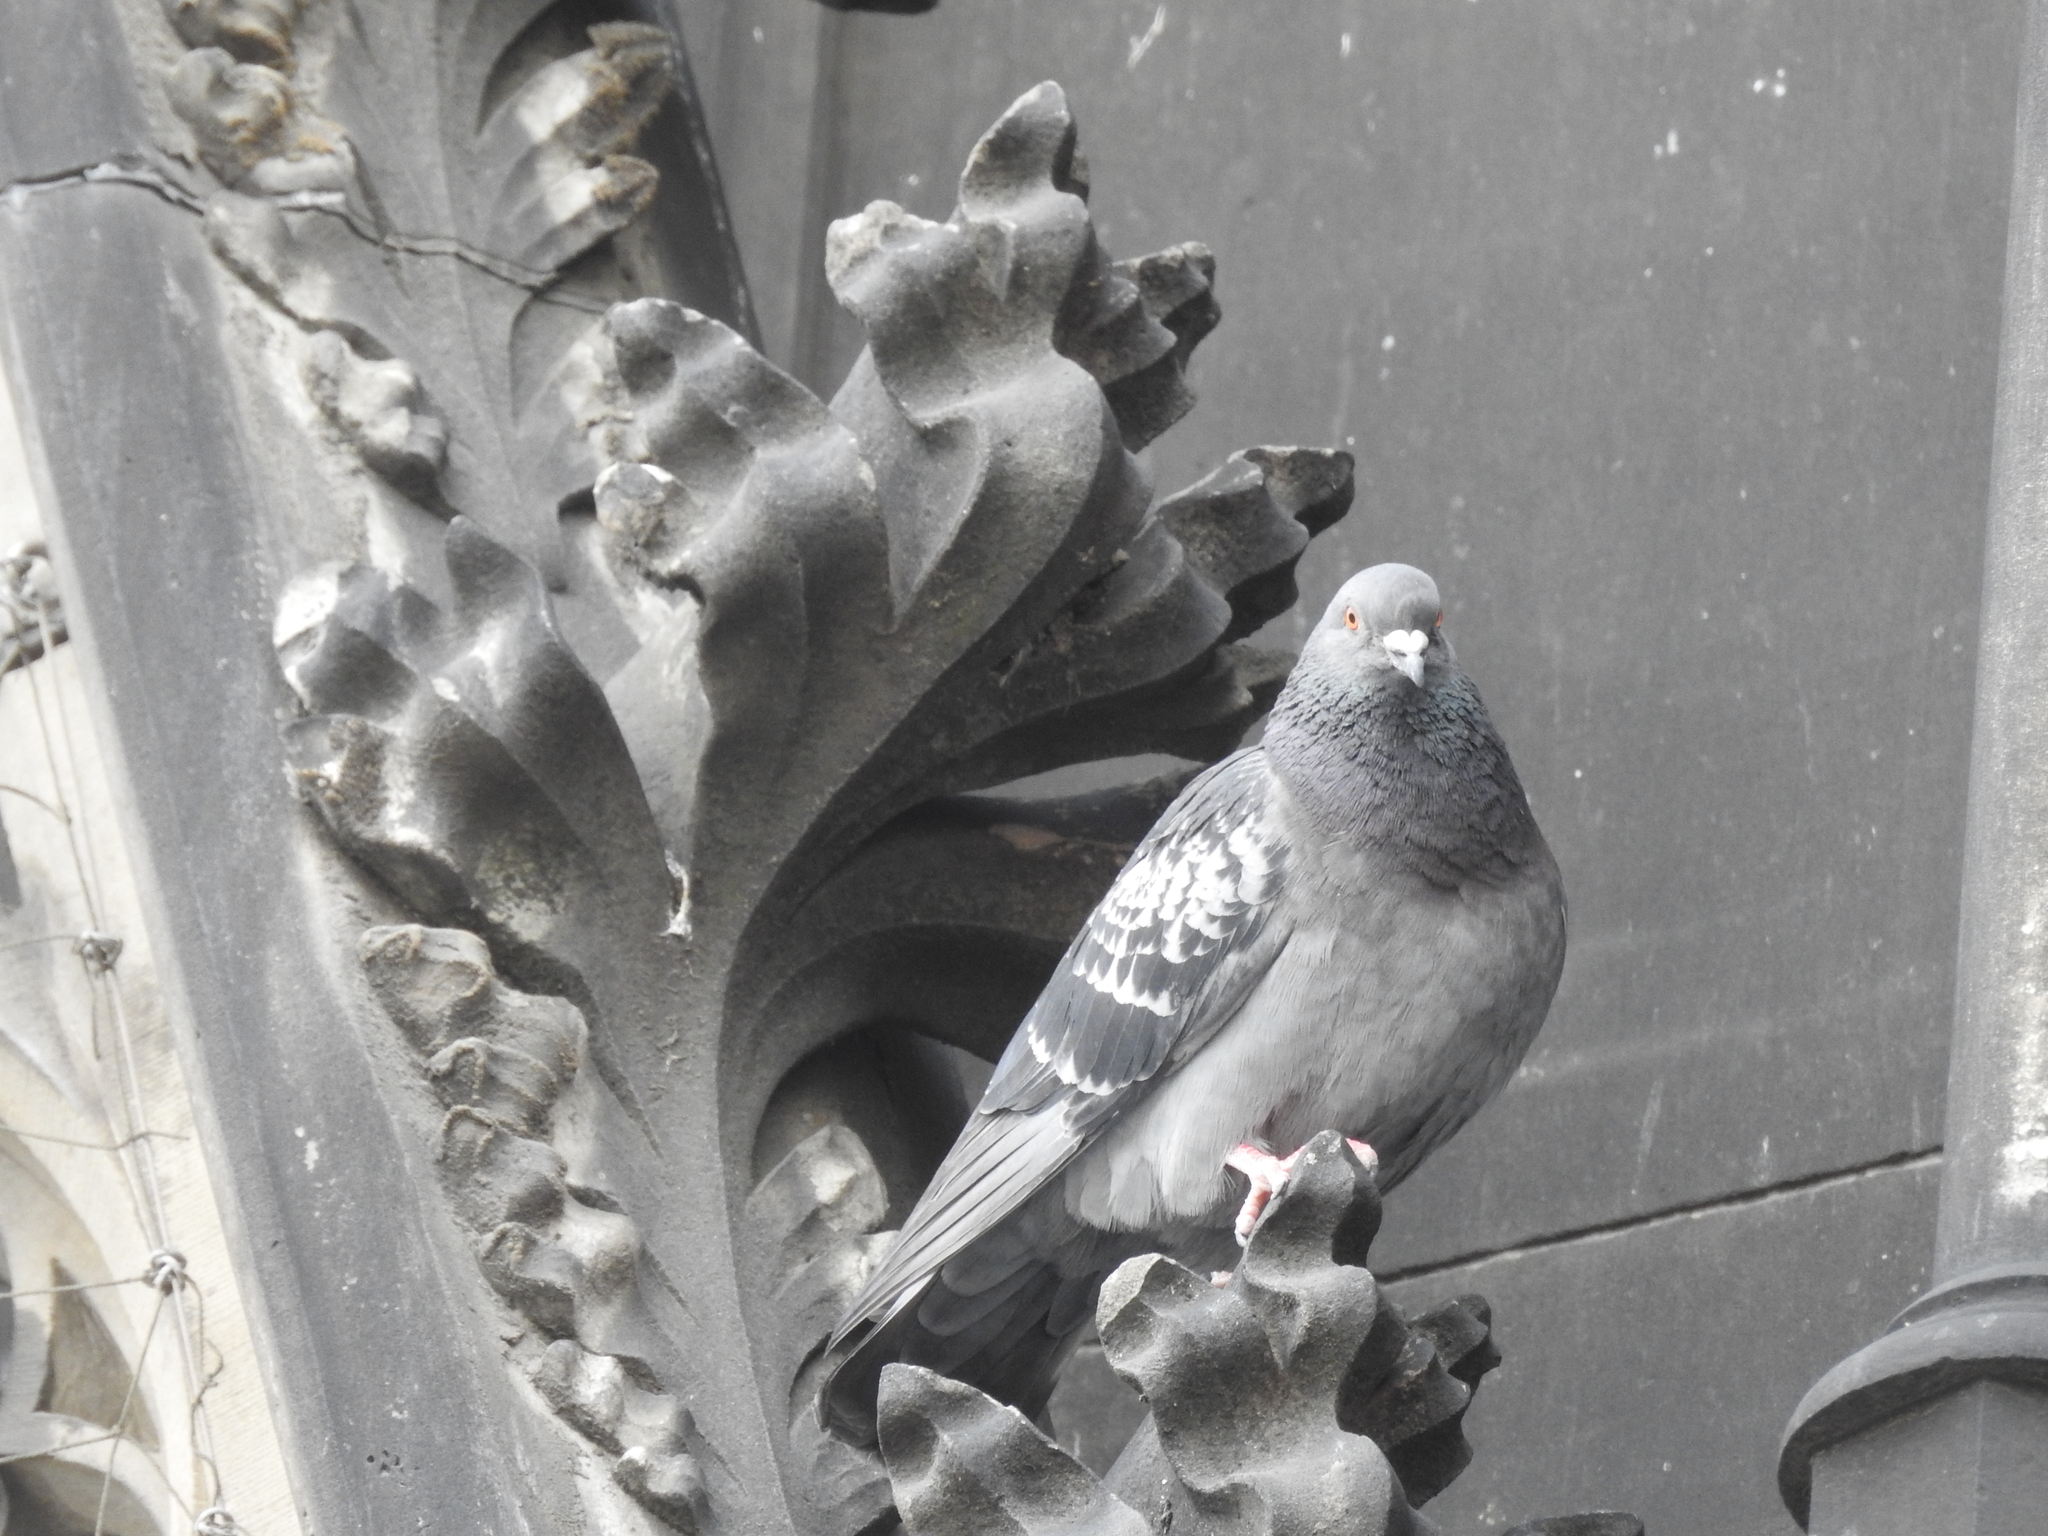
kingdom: Animalia
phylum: Chordata
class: Aves
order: Columbiformes
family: Columbidae
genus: Columba
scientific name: Columba livia
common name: Rock pigeon
